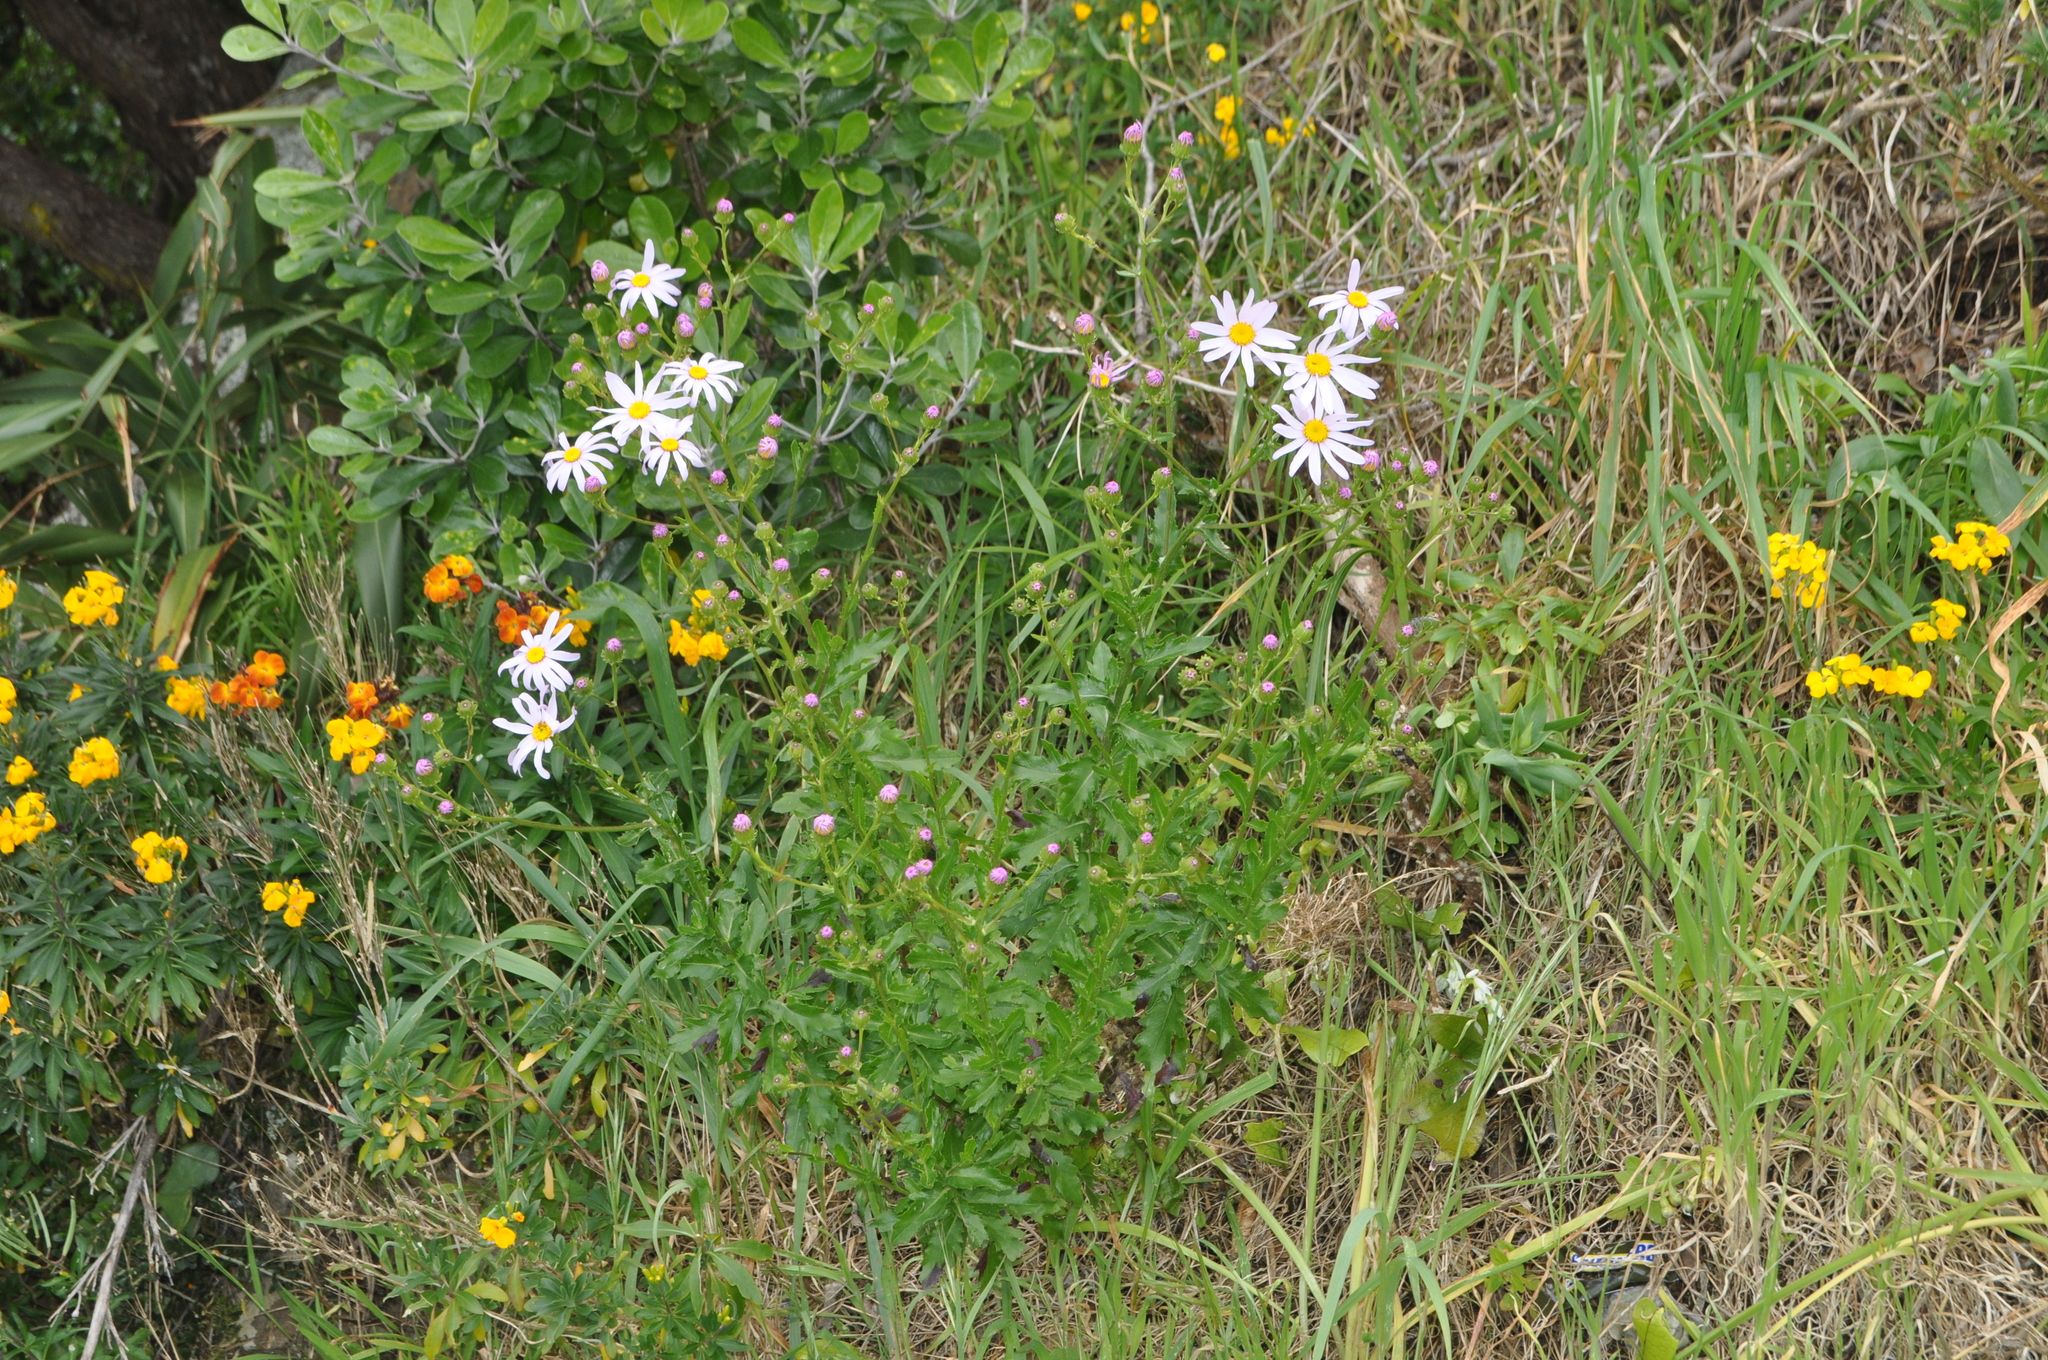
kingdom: Plantae
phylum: Tracheophyta
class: Magnoliopsida
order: Asterales
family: Asteraceae
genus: Senecio
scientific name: Senecio glastifolius
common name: Woad-leaved ragwort
